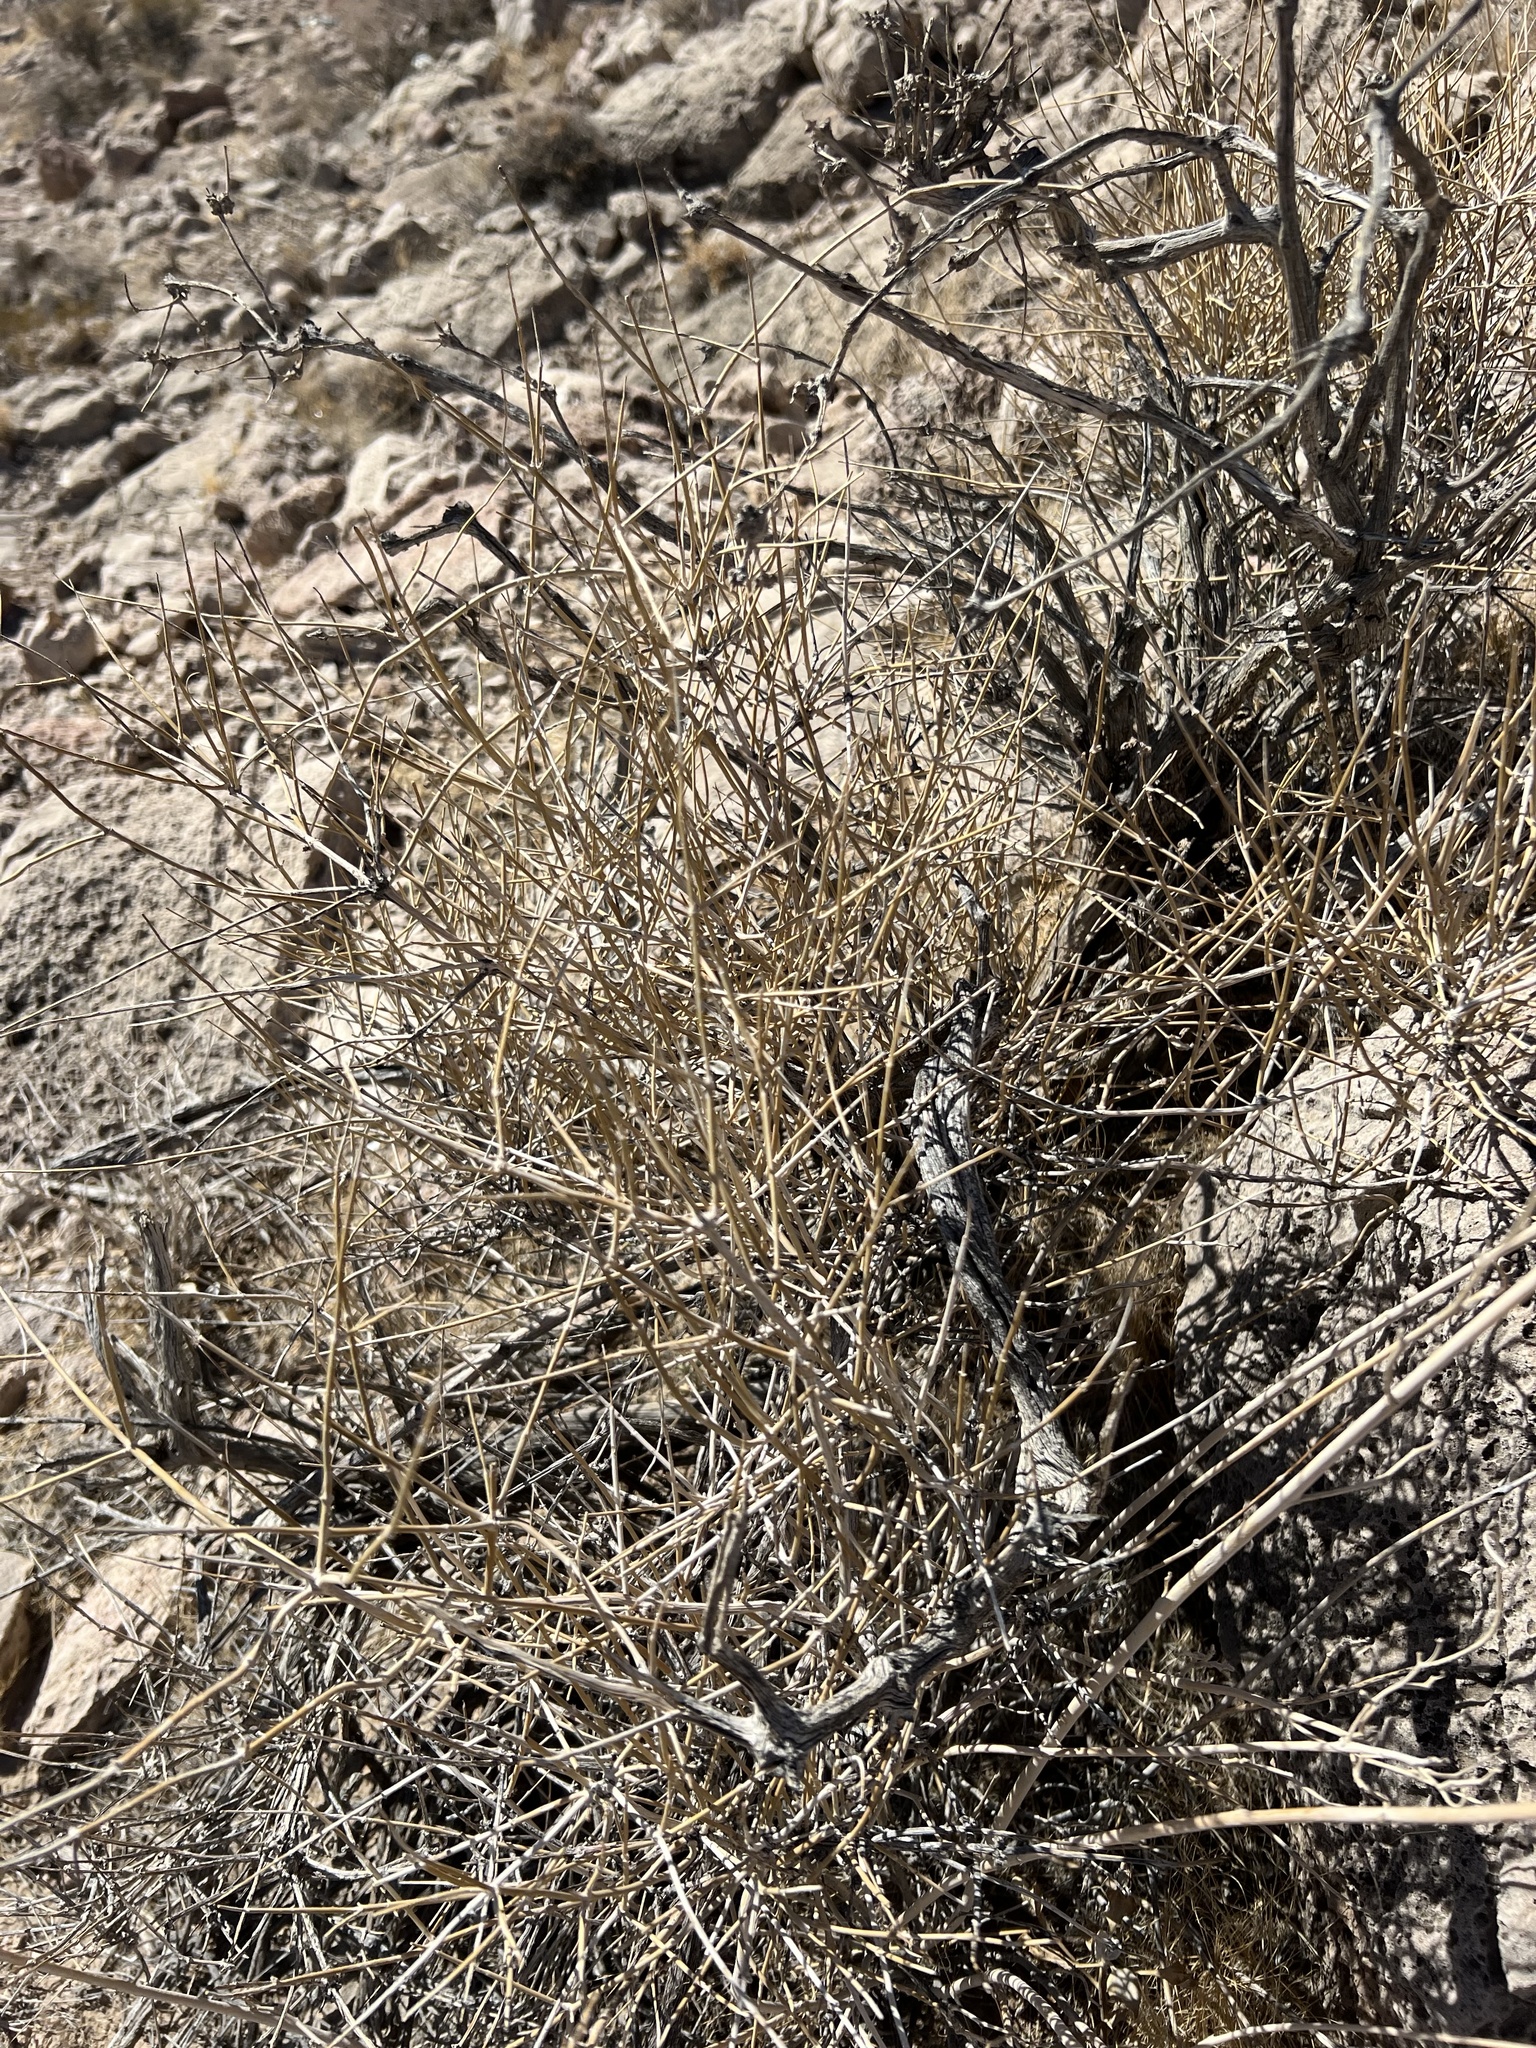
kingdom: Plantae
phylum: Tracheophyta
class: Gnetopsida
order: Ephedrales
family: Ephedraceae
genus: Ephedra
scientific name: Ephedra nevadensis
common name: Gray ephedra
